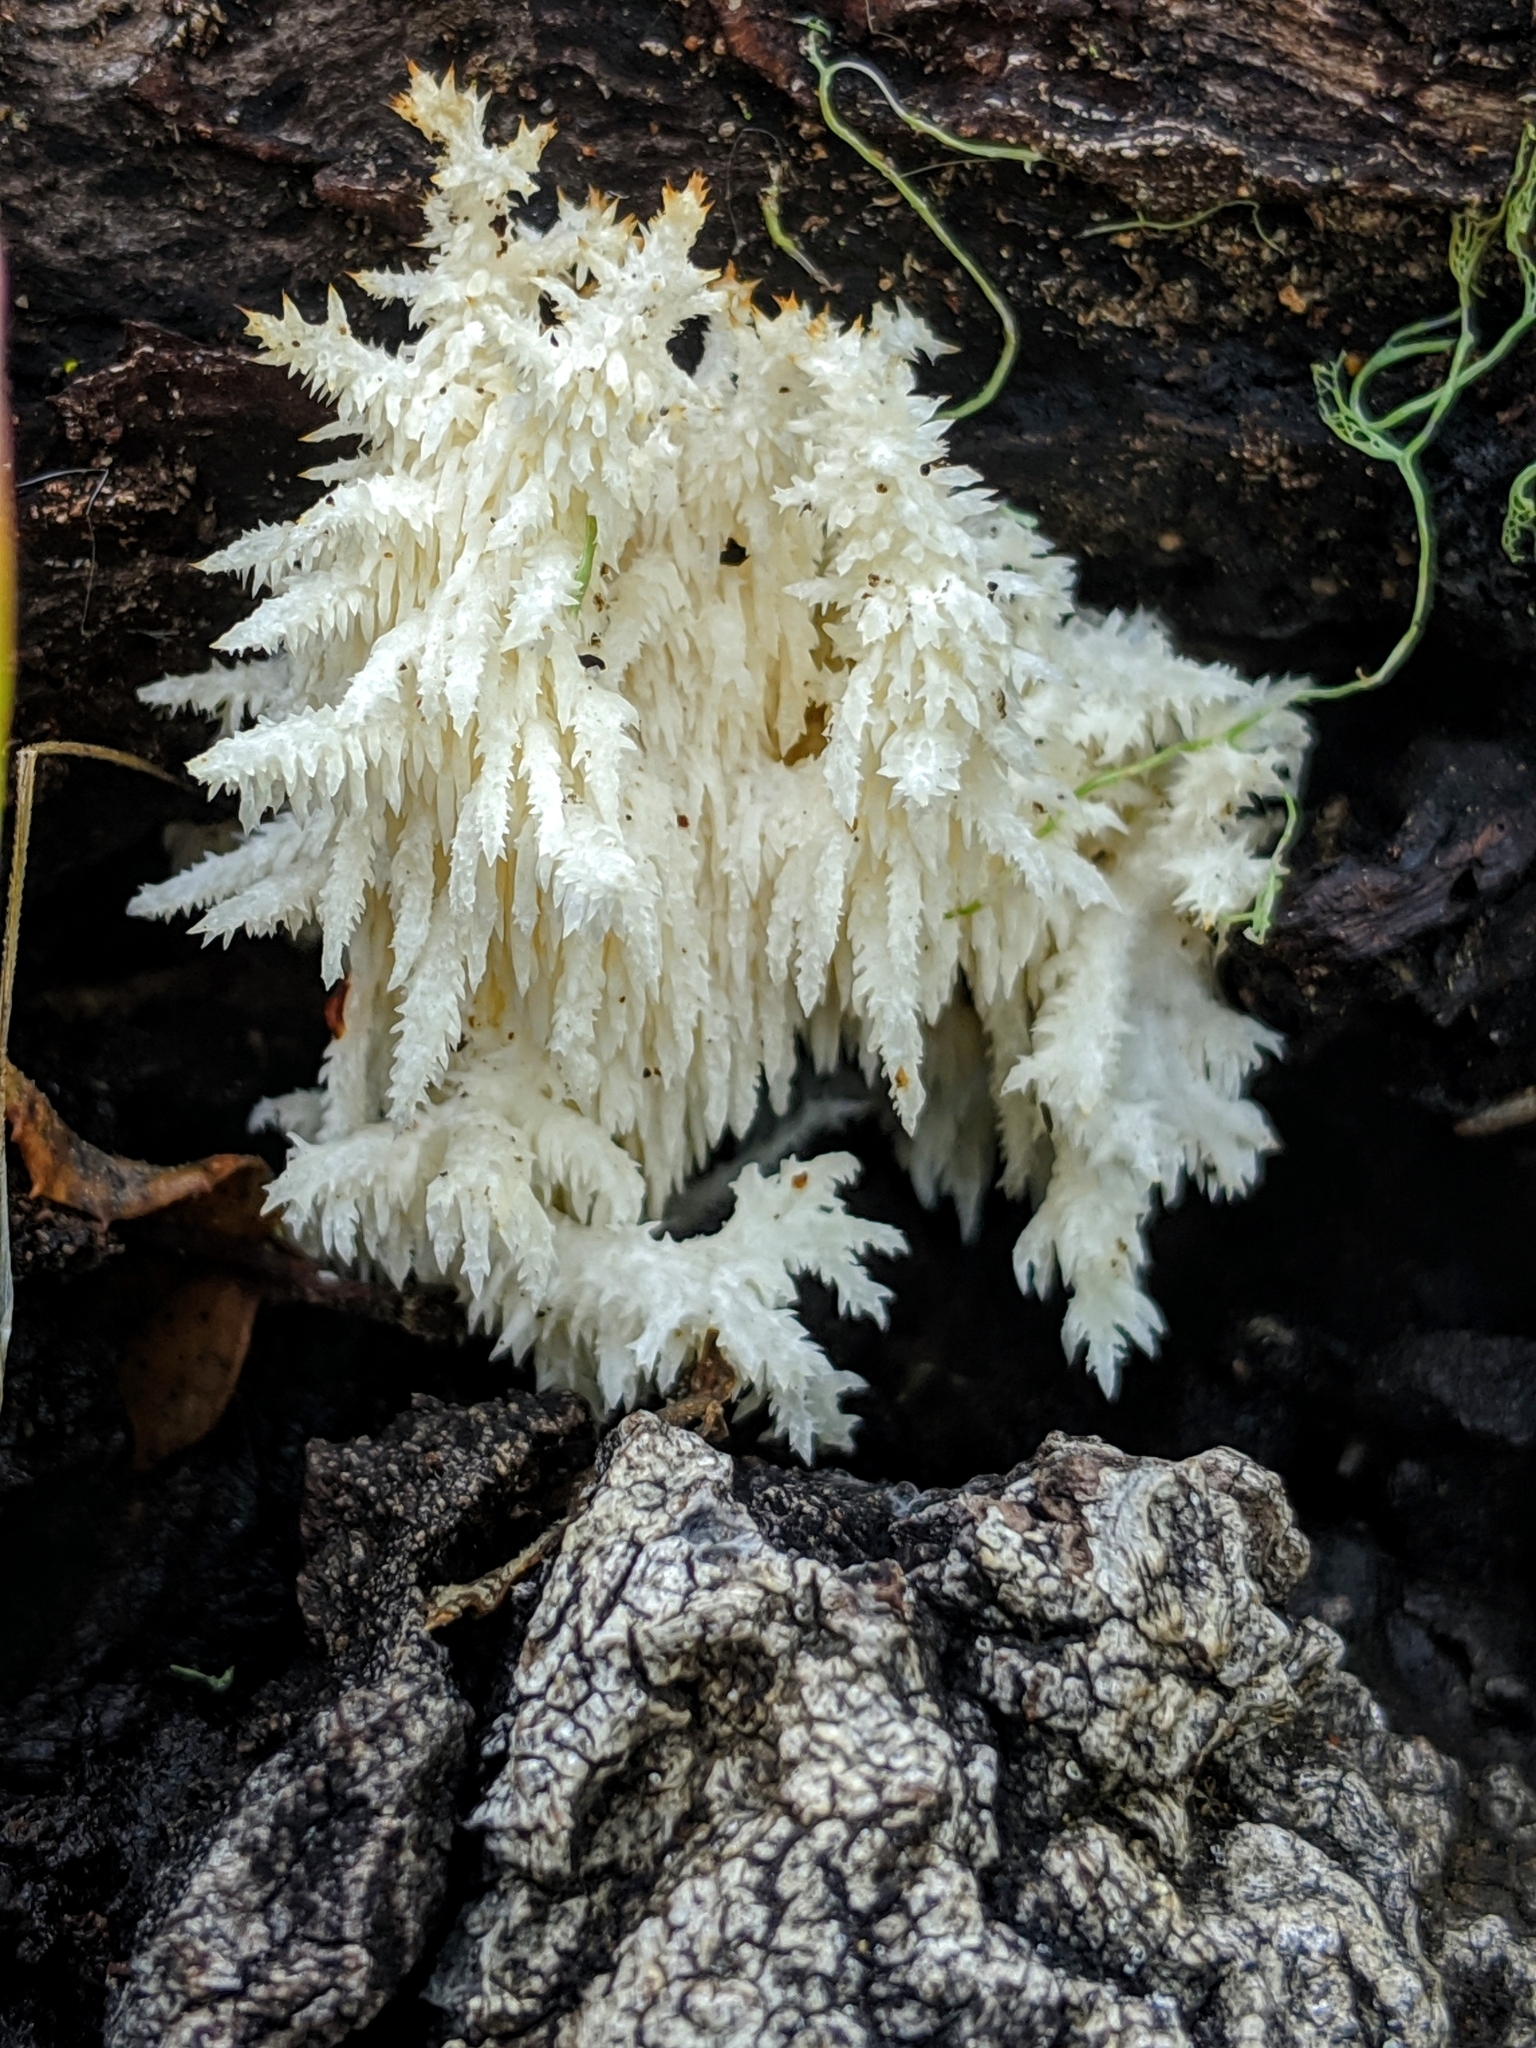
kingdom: Fungi
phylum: Basidiomycota
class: Agaricomycetes
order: Russulales
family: Hericiaceae
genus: Hericium
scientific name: Hericium coralloides
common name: Coral tooth
